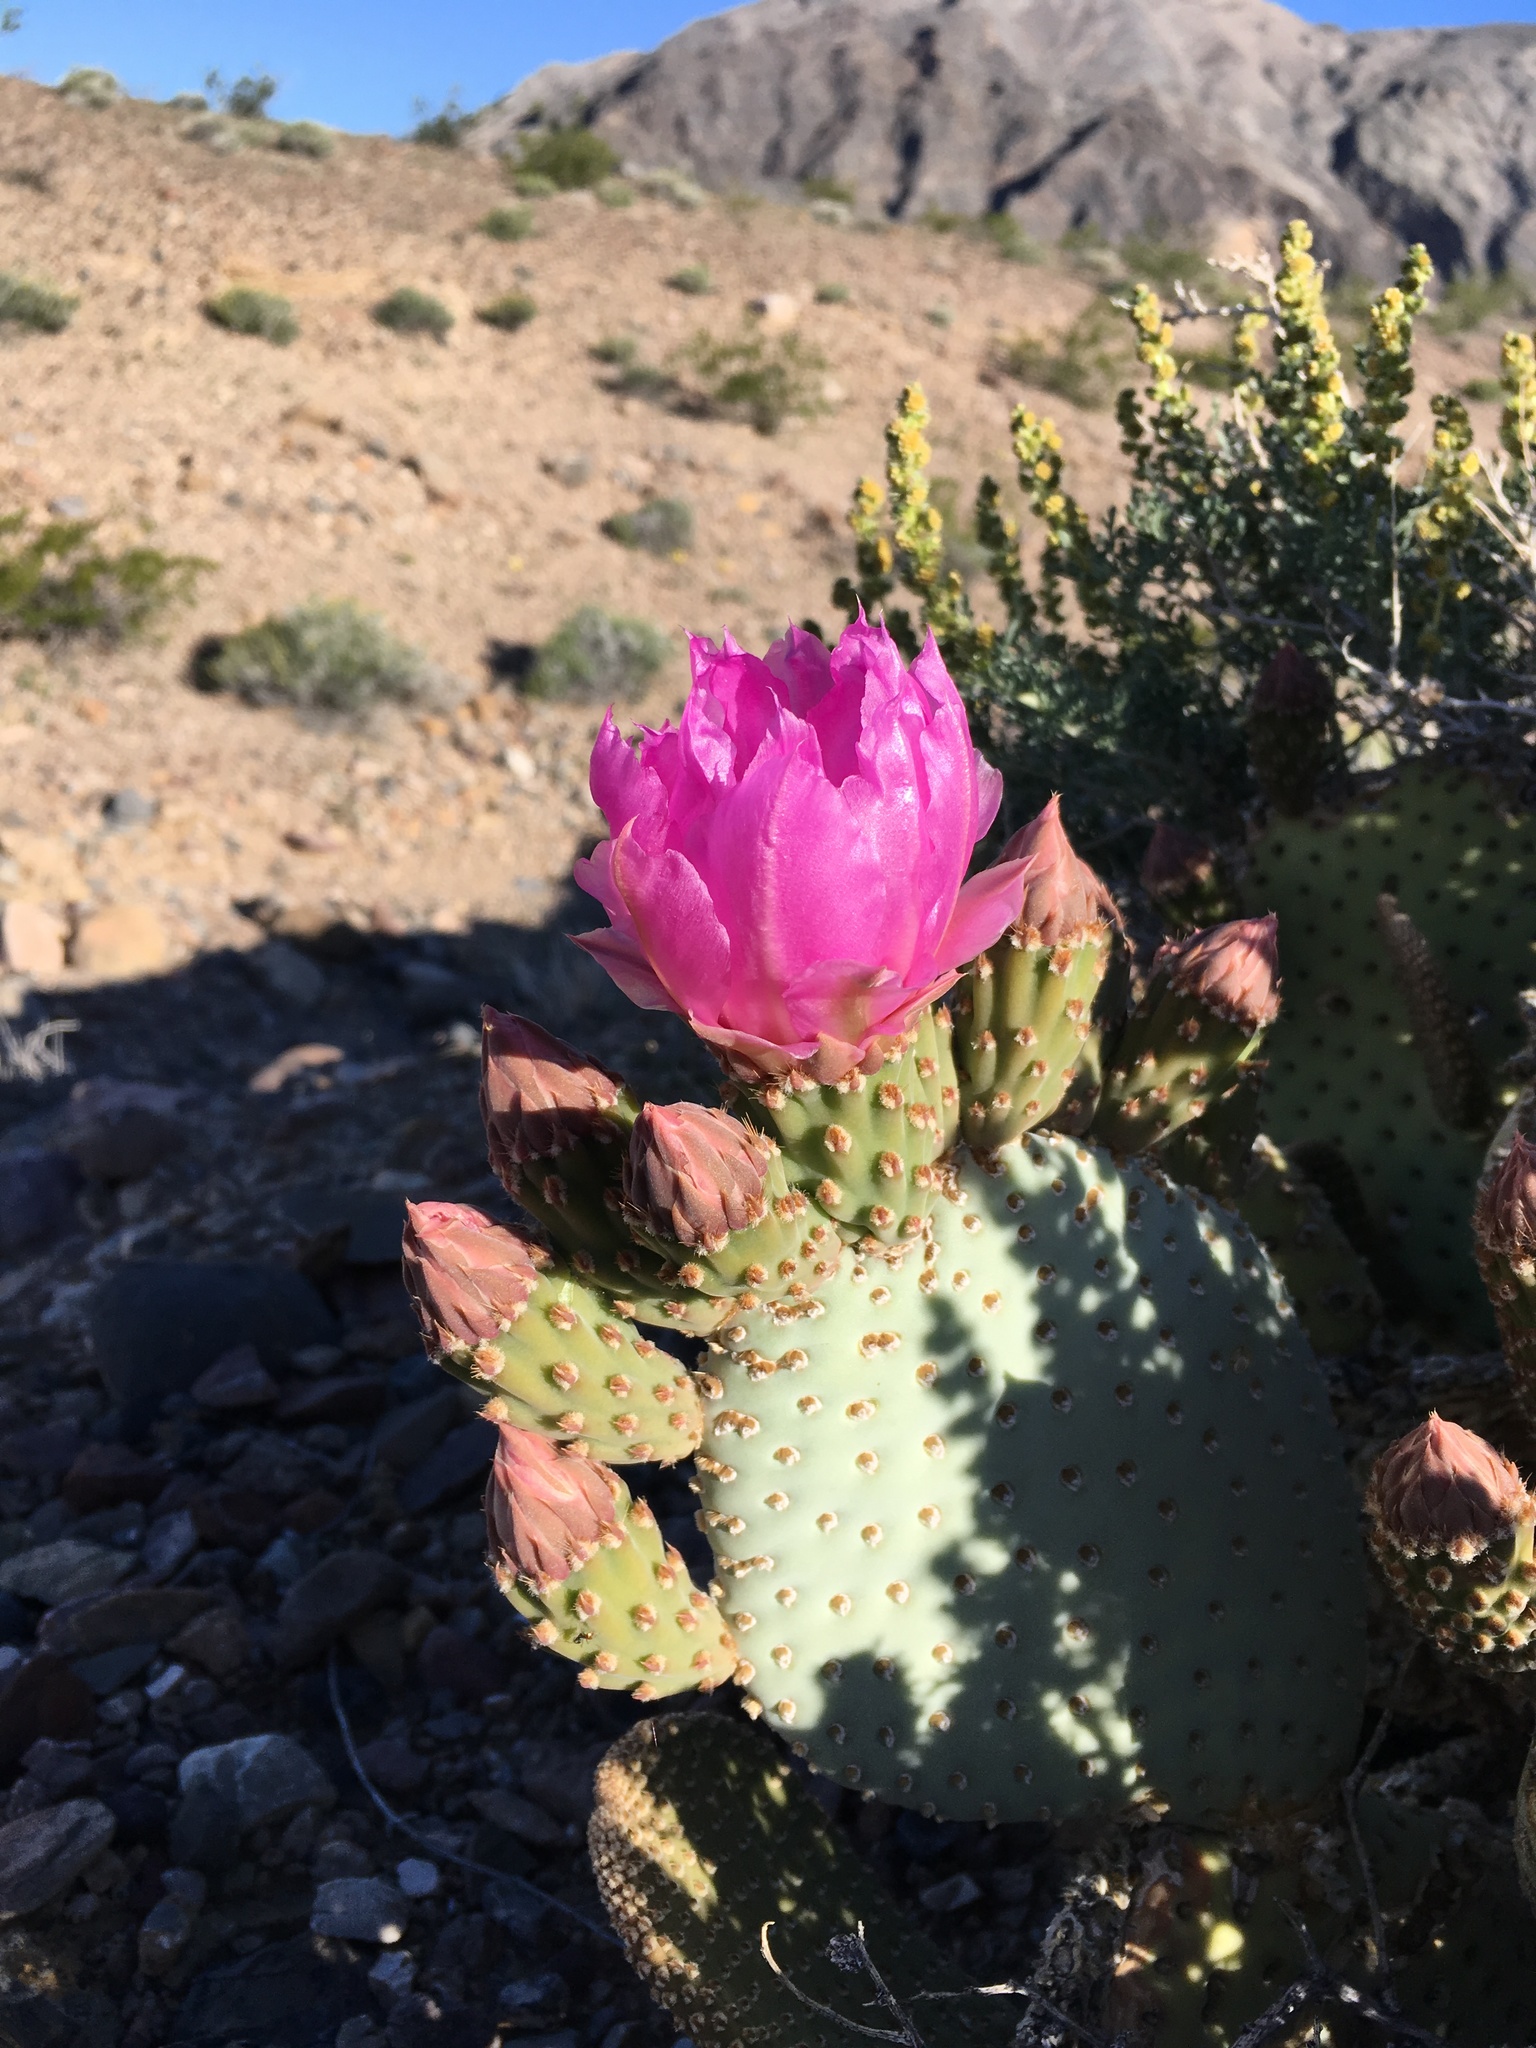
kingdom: Plantae
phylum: Tracheophyta
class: Magnoliopsida
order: Caryophyllales
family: Cactaceae
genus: Opuntia
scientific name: Opuntia basilaris
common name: Beavertail prickly-pear
